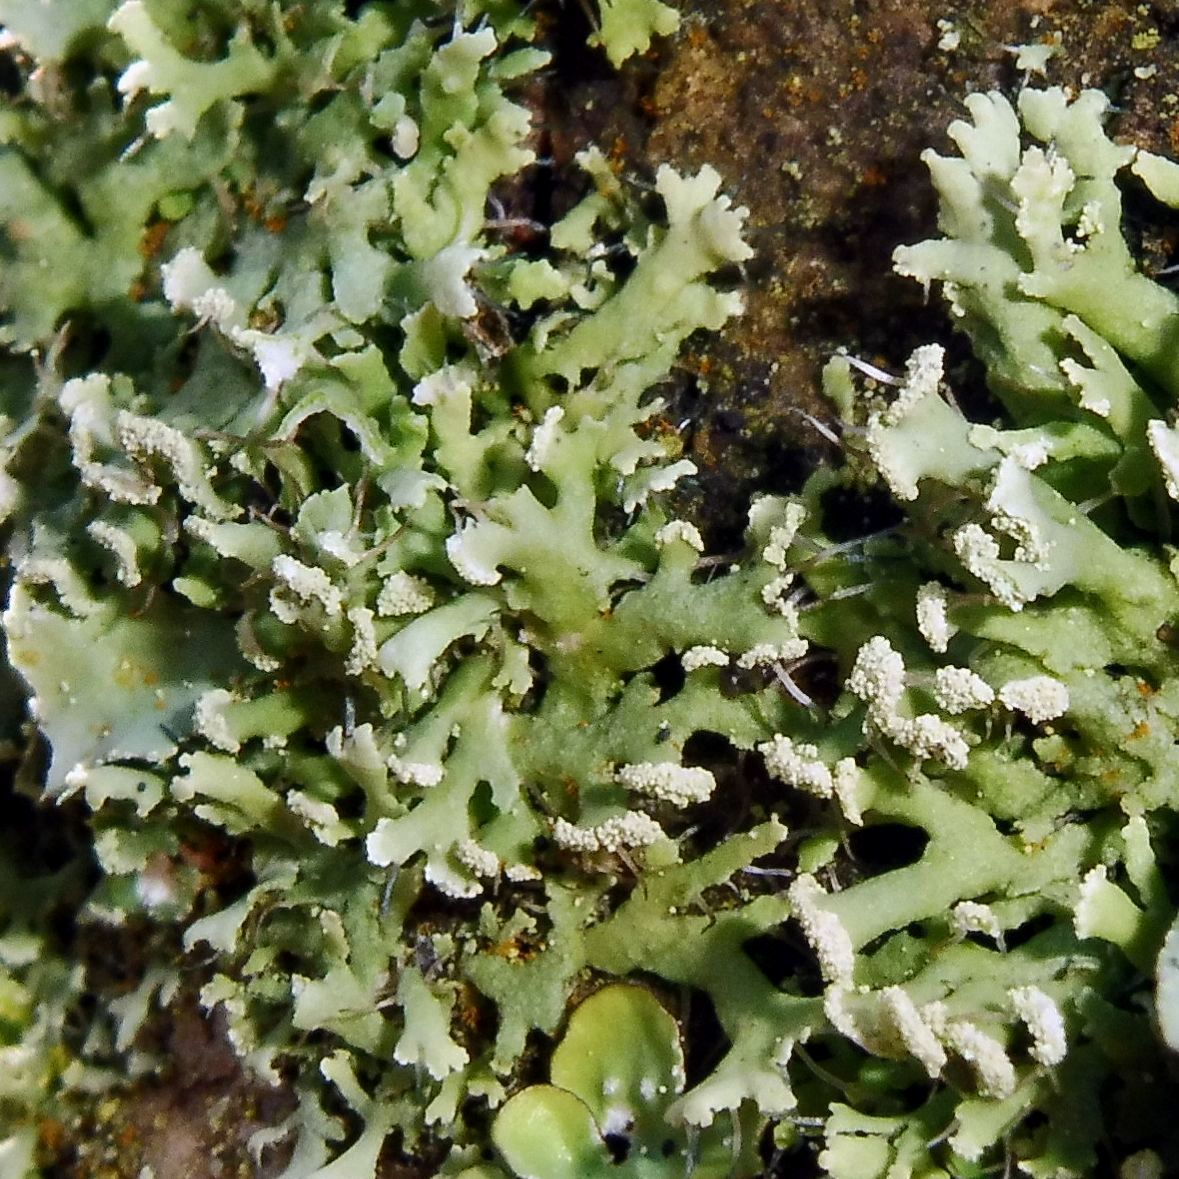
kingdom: Fungi
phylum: Ascomycota
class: Lecanoromycetes
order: Caliciales
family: Physciaceae
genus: Physcia
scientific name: Physcia tenella
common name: Fringed rosette lichen
